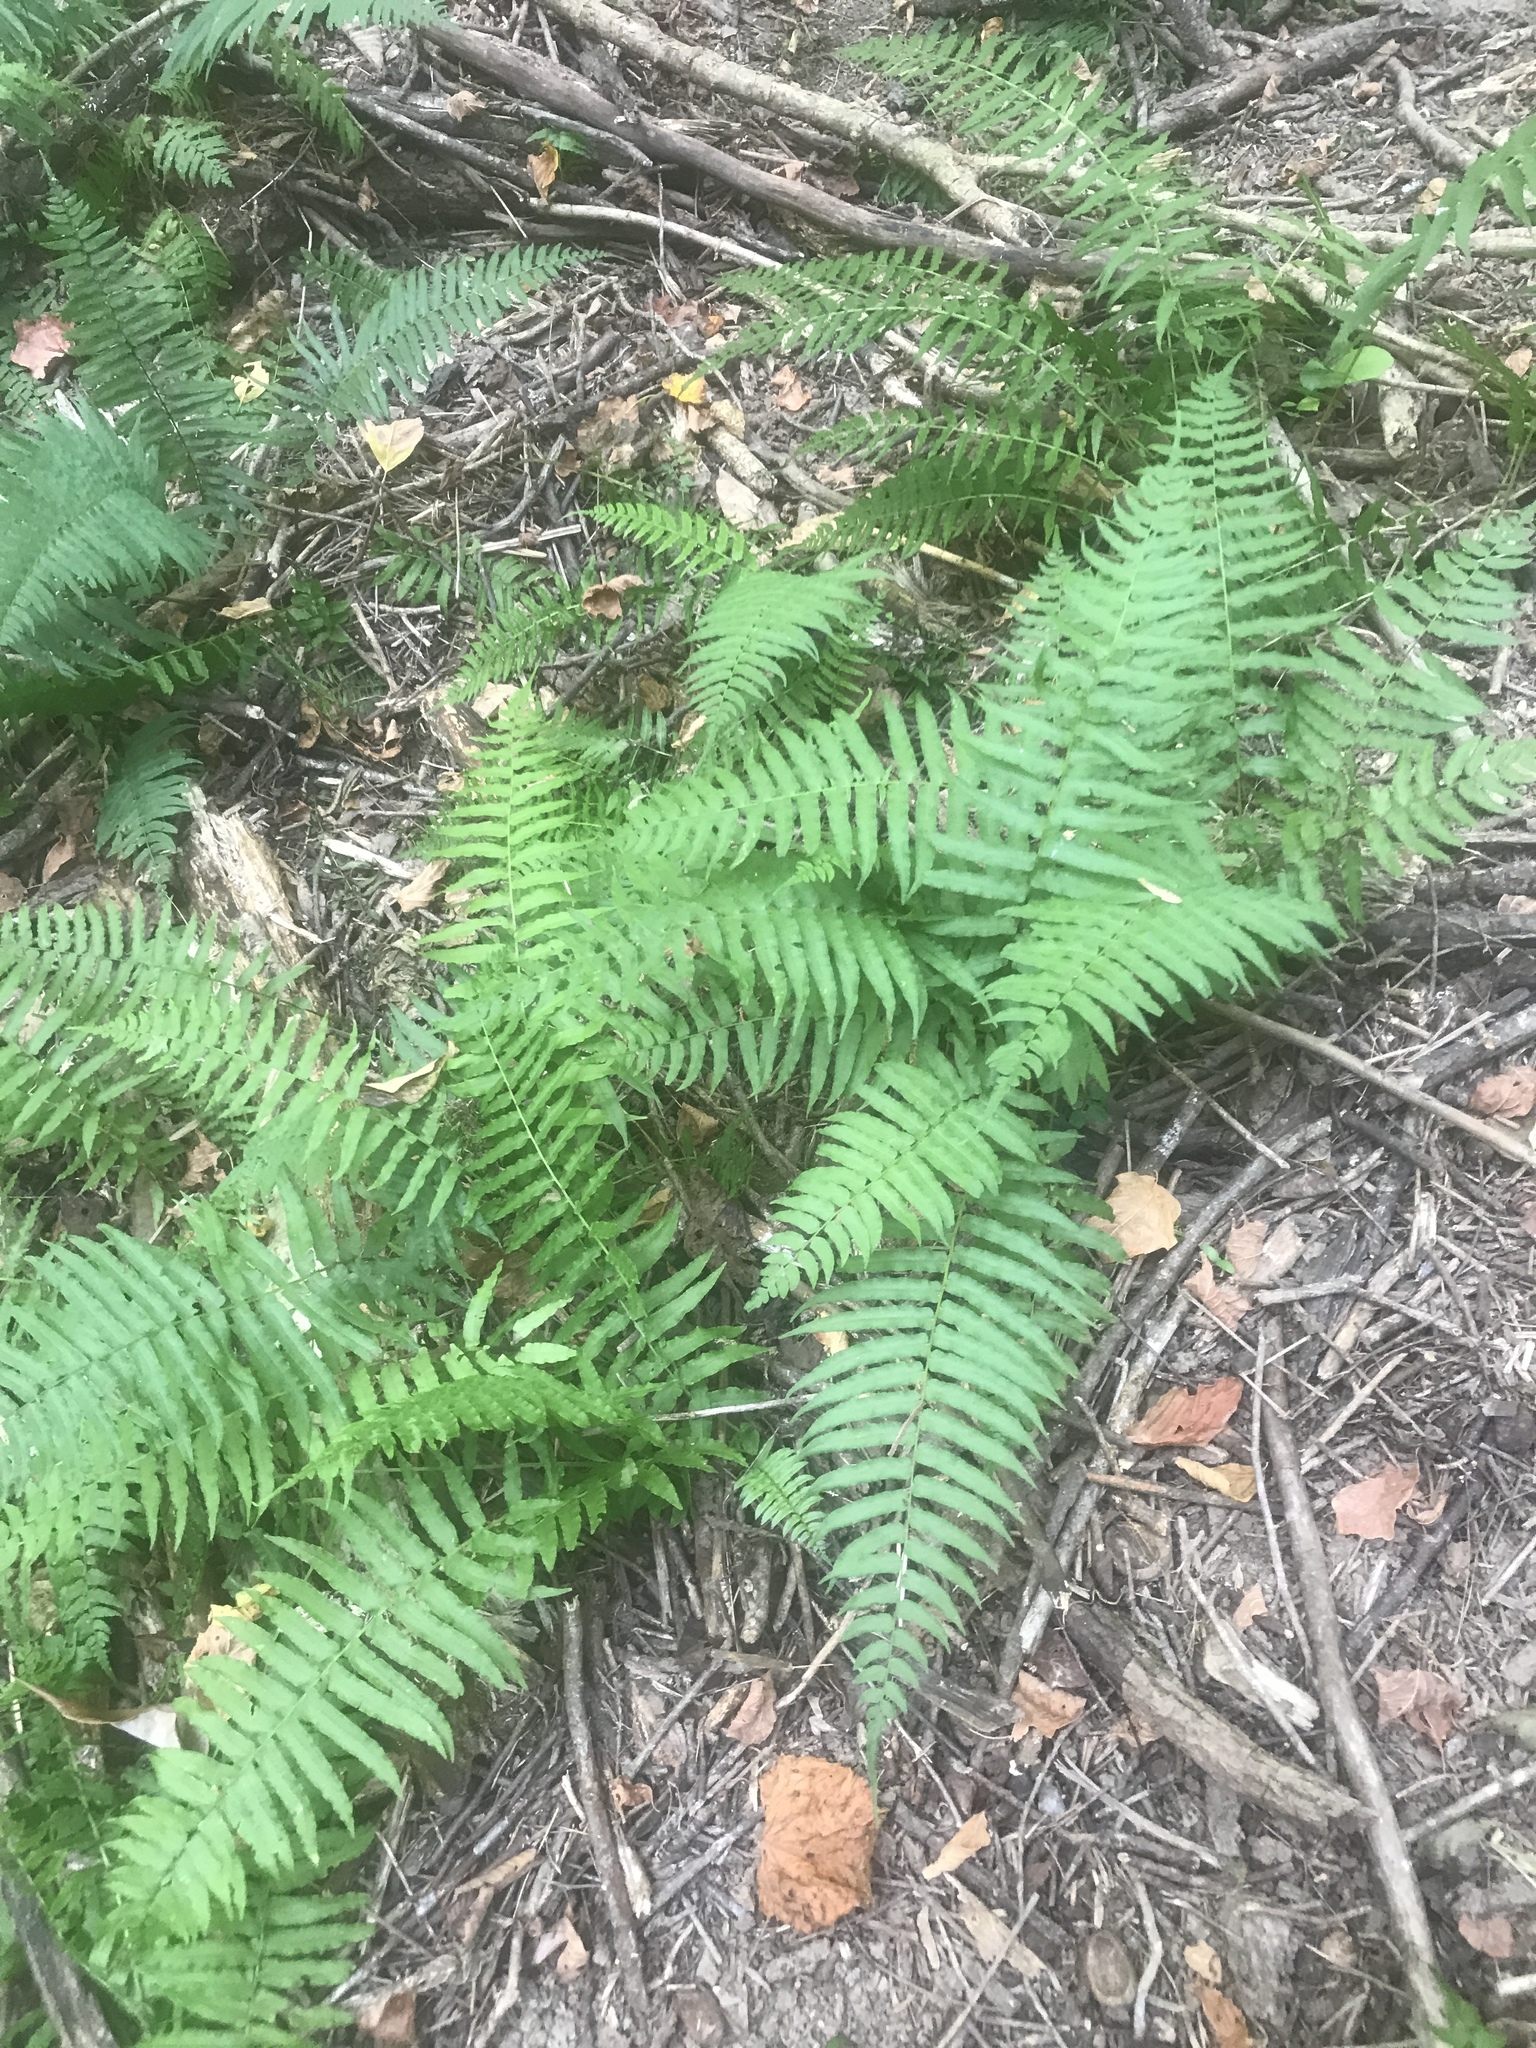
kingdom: Plantae
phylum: Tracheophyta
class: Polypodiopsida
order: Polypodiales
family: Diplaziopsidaceae
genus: Homalosorus
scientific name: Homalosorus pycnocarpos
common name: Glade fern
